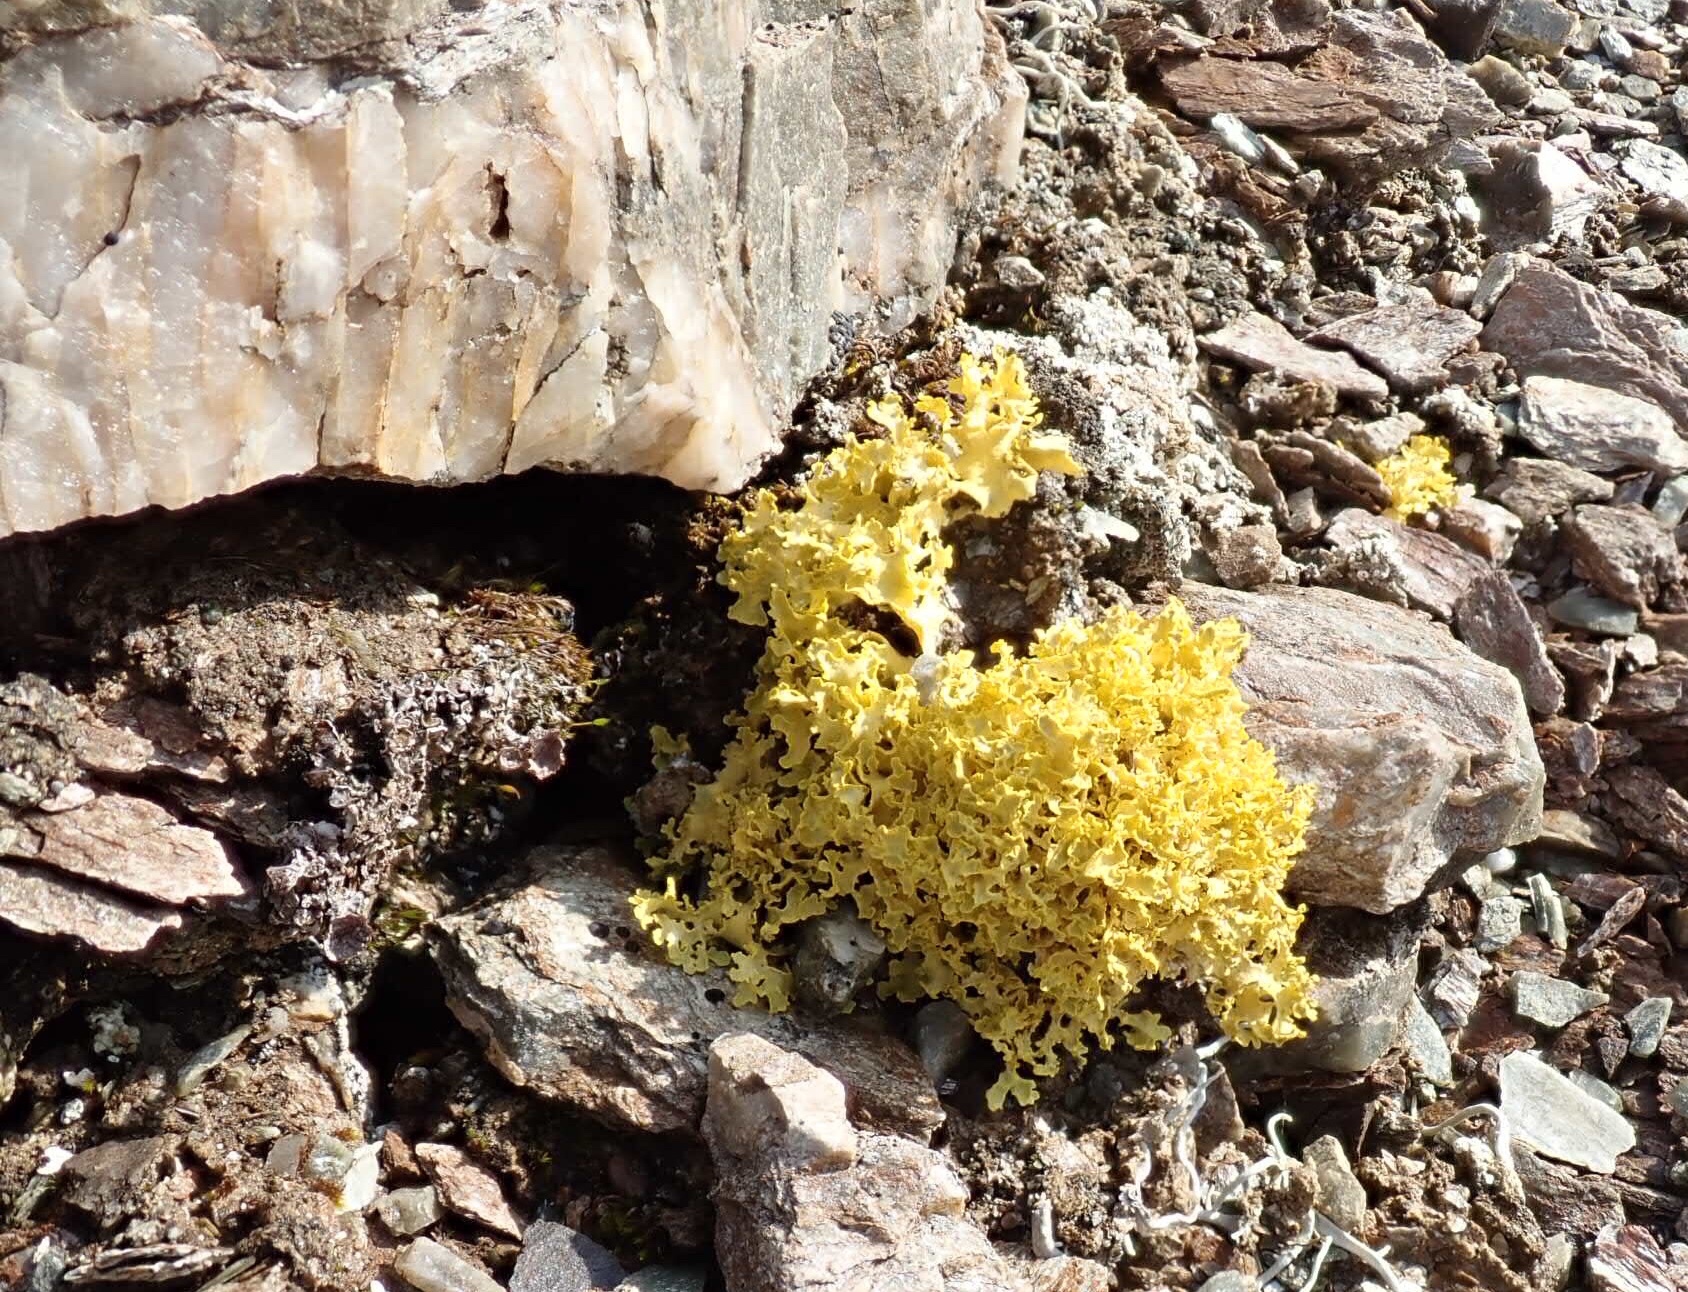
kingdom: Fungi
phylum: Ascomycota
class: Lecanoromycetes
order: Lecanorales
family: Parmeliaceae
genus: Vulpicida
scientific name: Vulpicida juniperinus
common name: Yellow lichen
